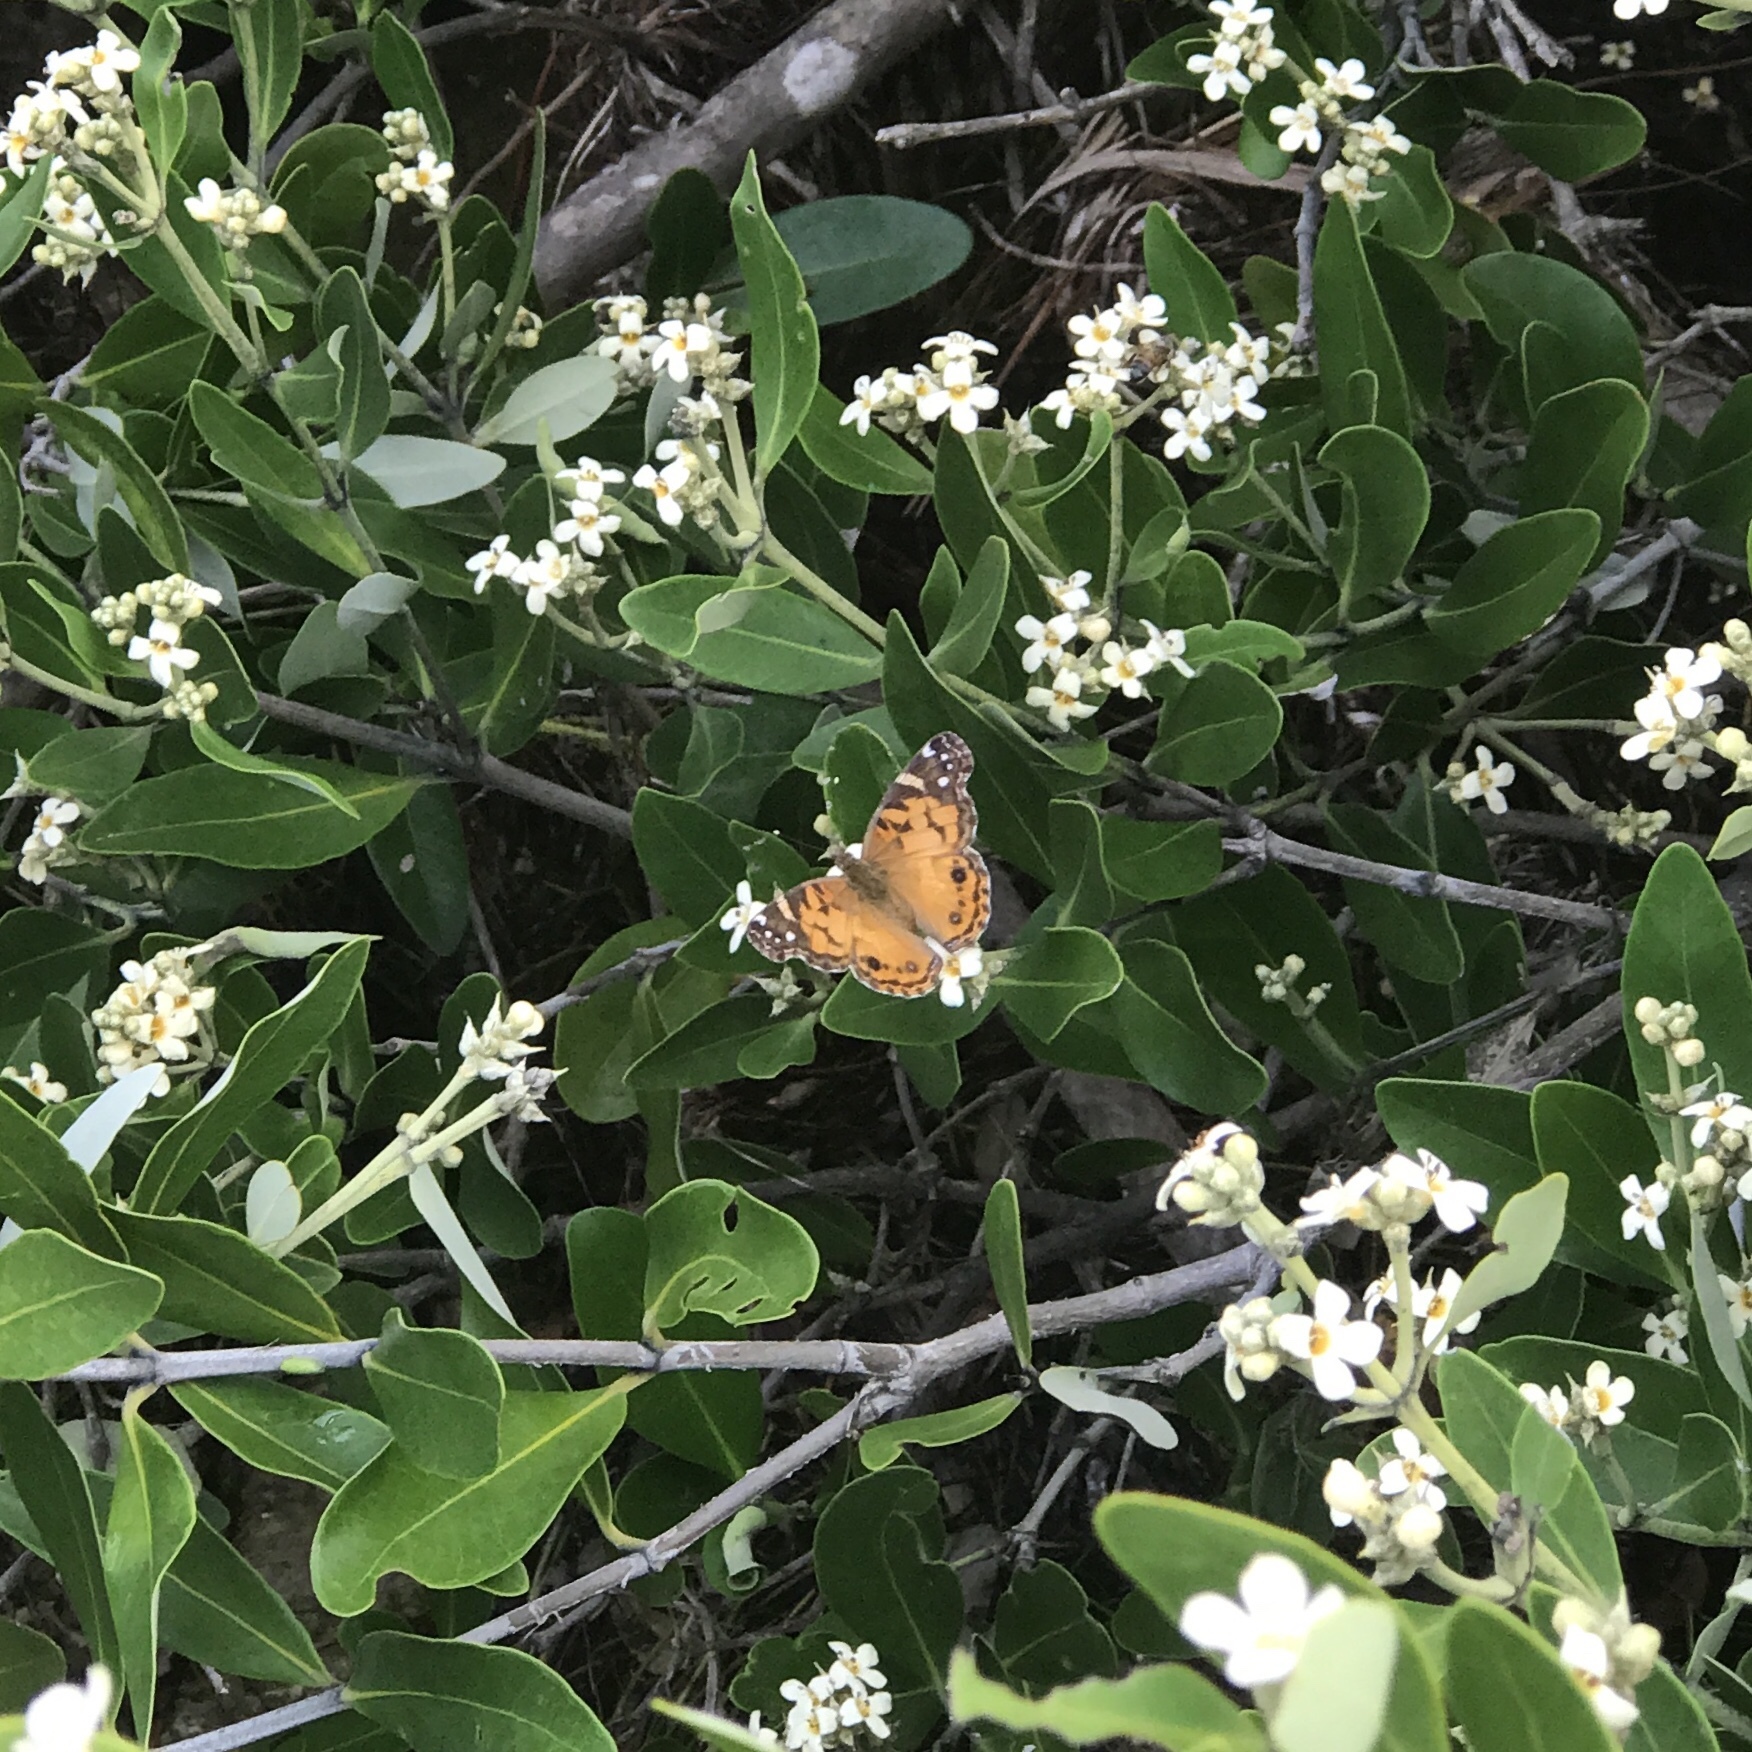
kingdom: Animalia
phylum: Arthropoda
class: Insecta
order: Lepidoptera
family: Nymphalidae
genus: Vanessa
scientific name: Vanessa virginiensis
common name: American lady
